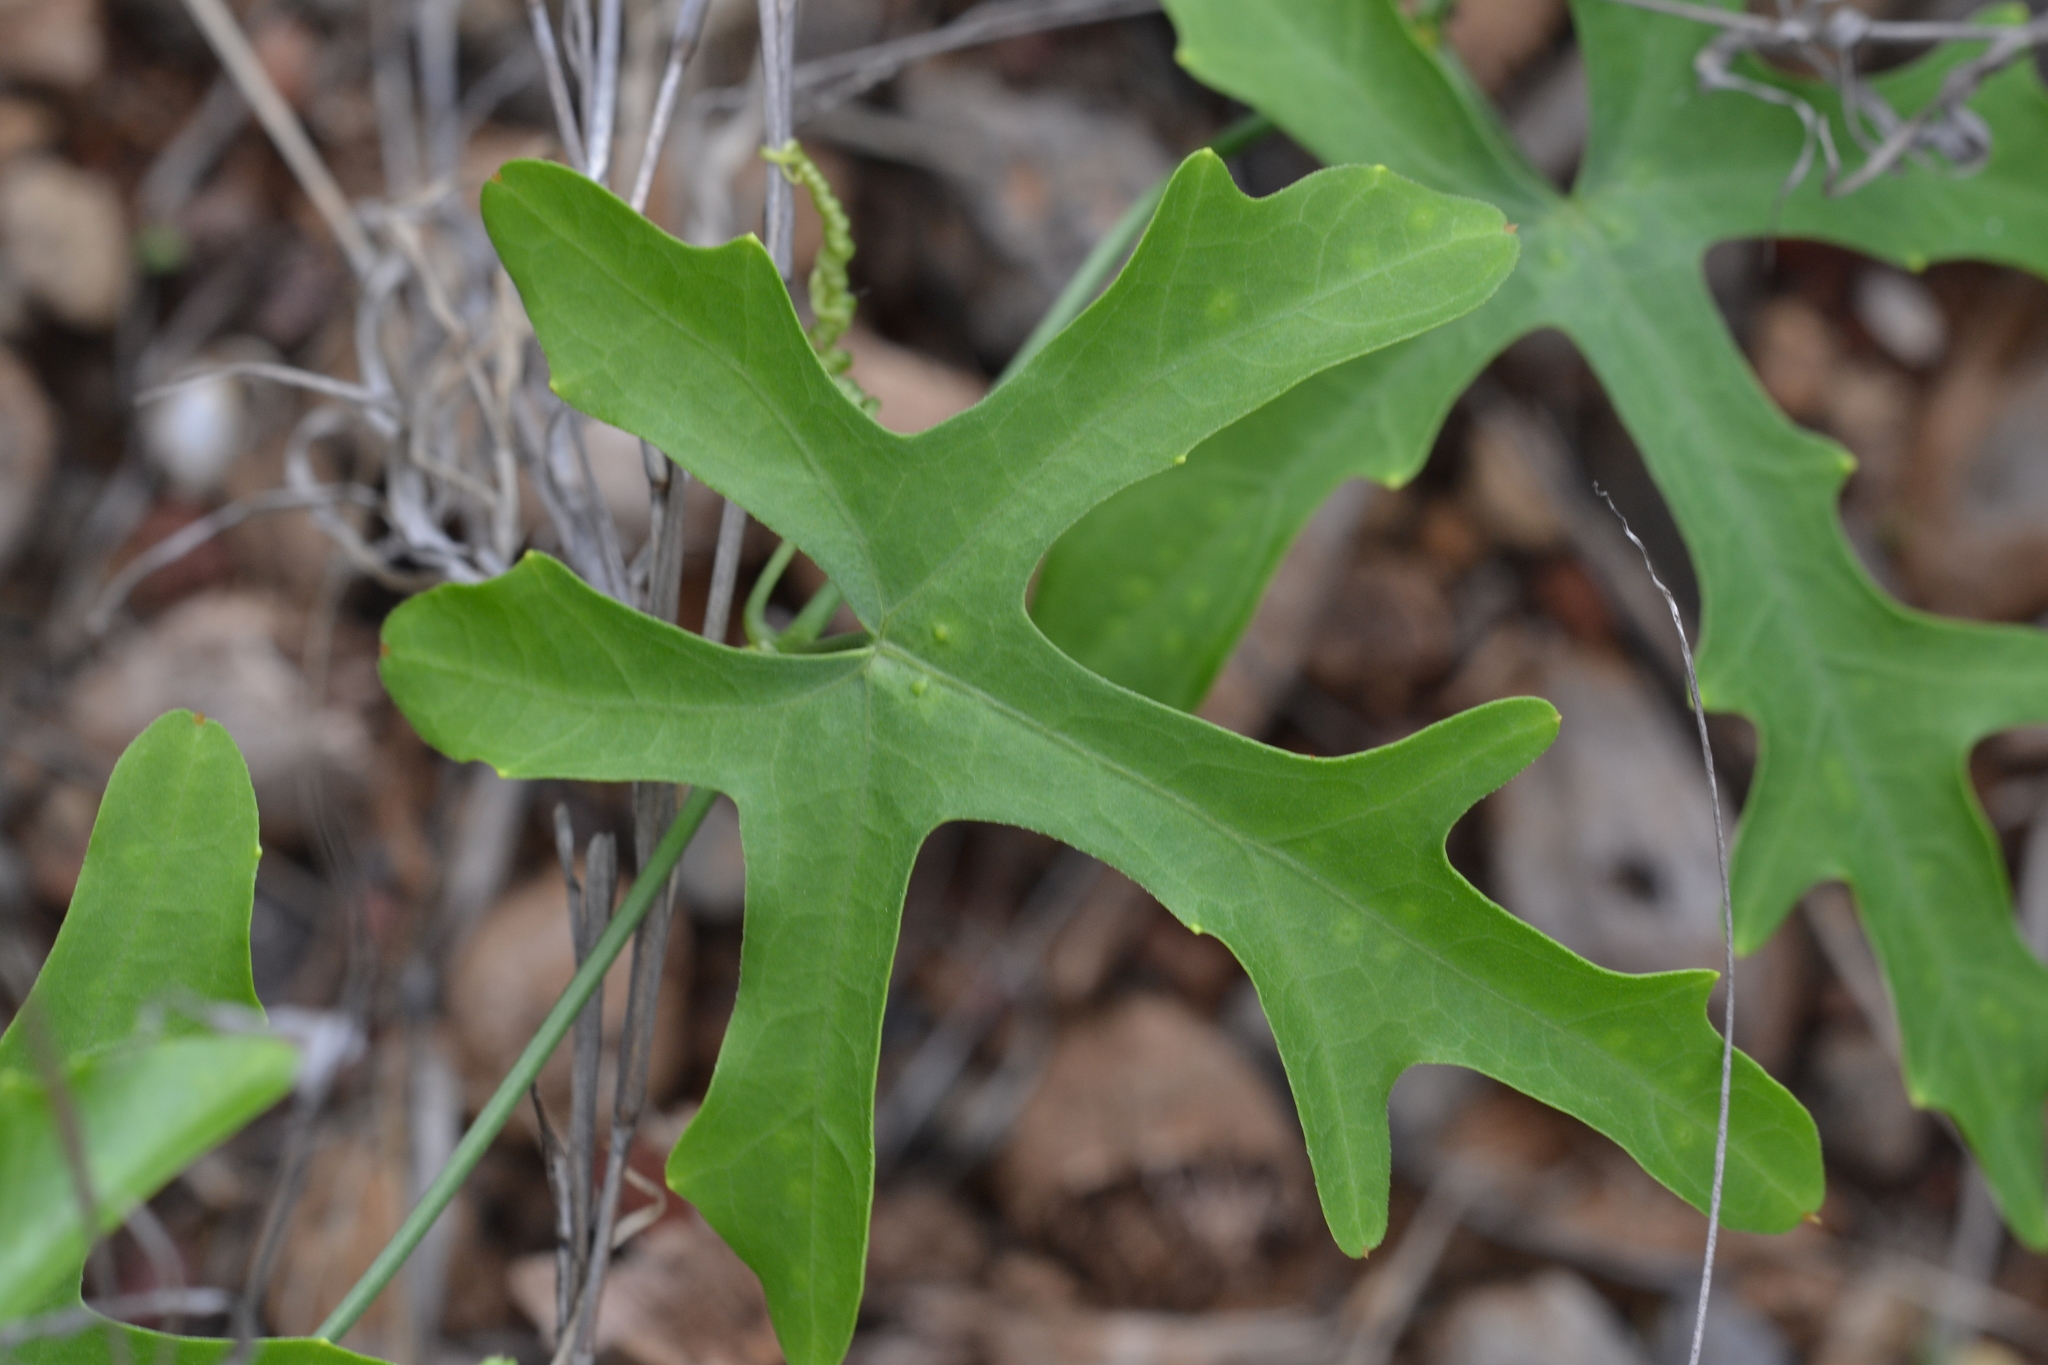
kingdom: Plantae
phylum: Tracheophyta
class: Magnoliopsida
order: Cucurbitales
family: Cucurbitaceae
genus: Coccinia
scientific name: Coccinia grandis
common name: Ivy gourd
